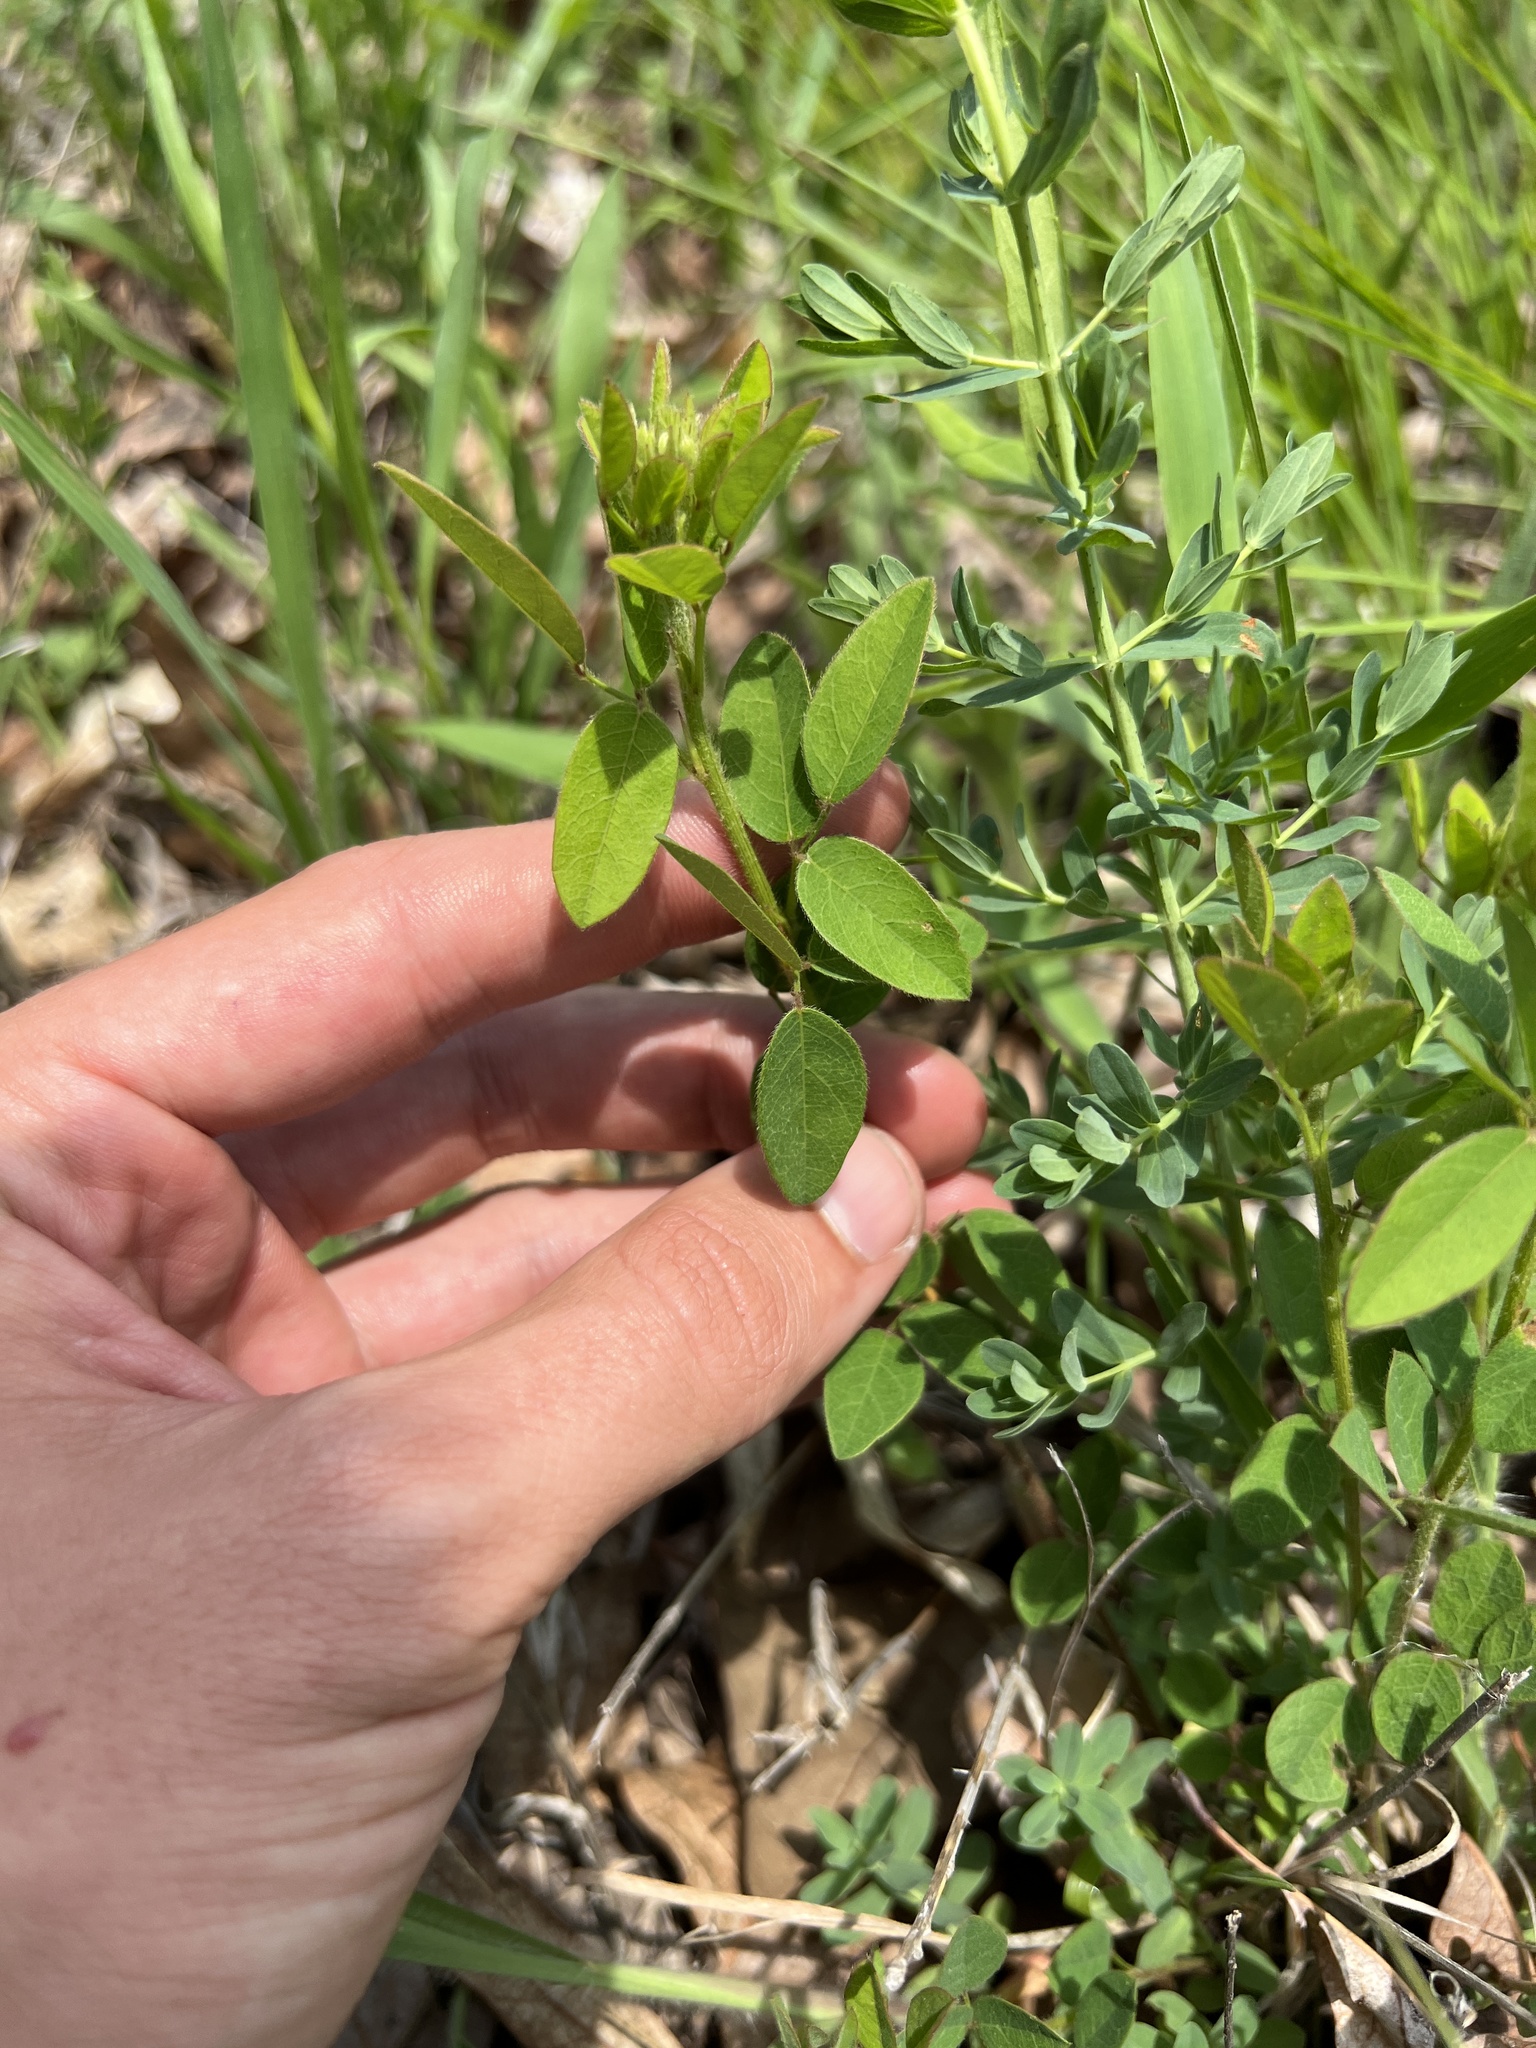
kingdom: Plantae
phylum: Tracheophyta
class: Magnoliopsida
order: Fabales
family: Fabaceae
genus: Desmodium
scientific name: Desmodium ciliare
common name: Hairy small-leaf ticktrefoil
